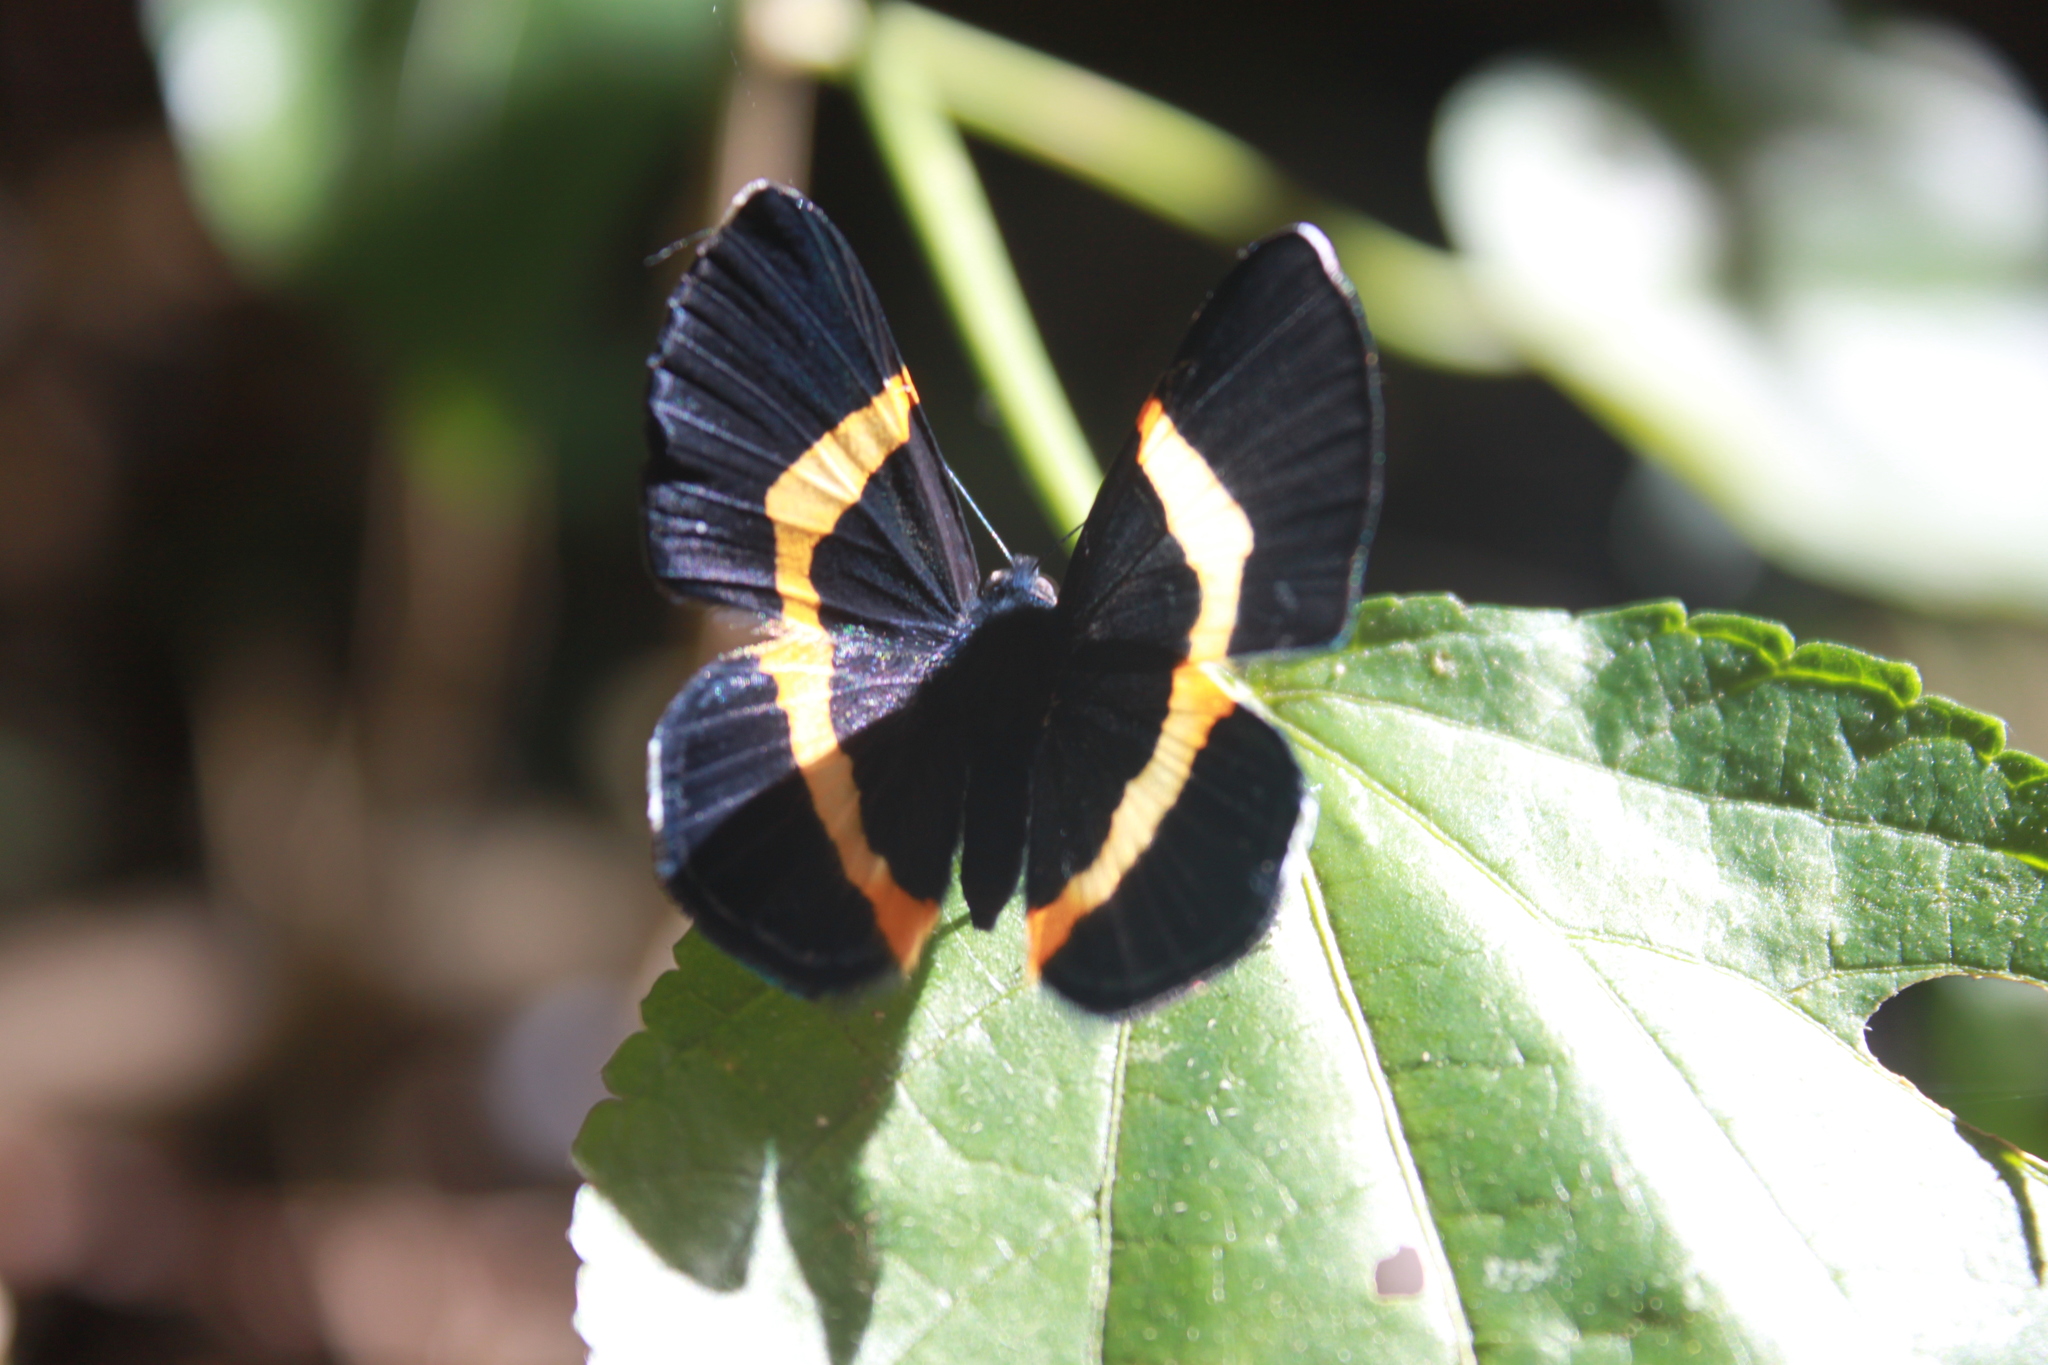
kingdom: Animalia
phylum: Arthropoda
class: Insecta
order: Lepidoptera
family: Riodinidae
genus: Notheme
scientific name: Notheme eumeus
